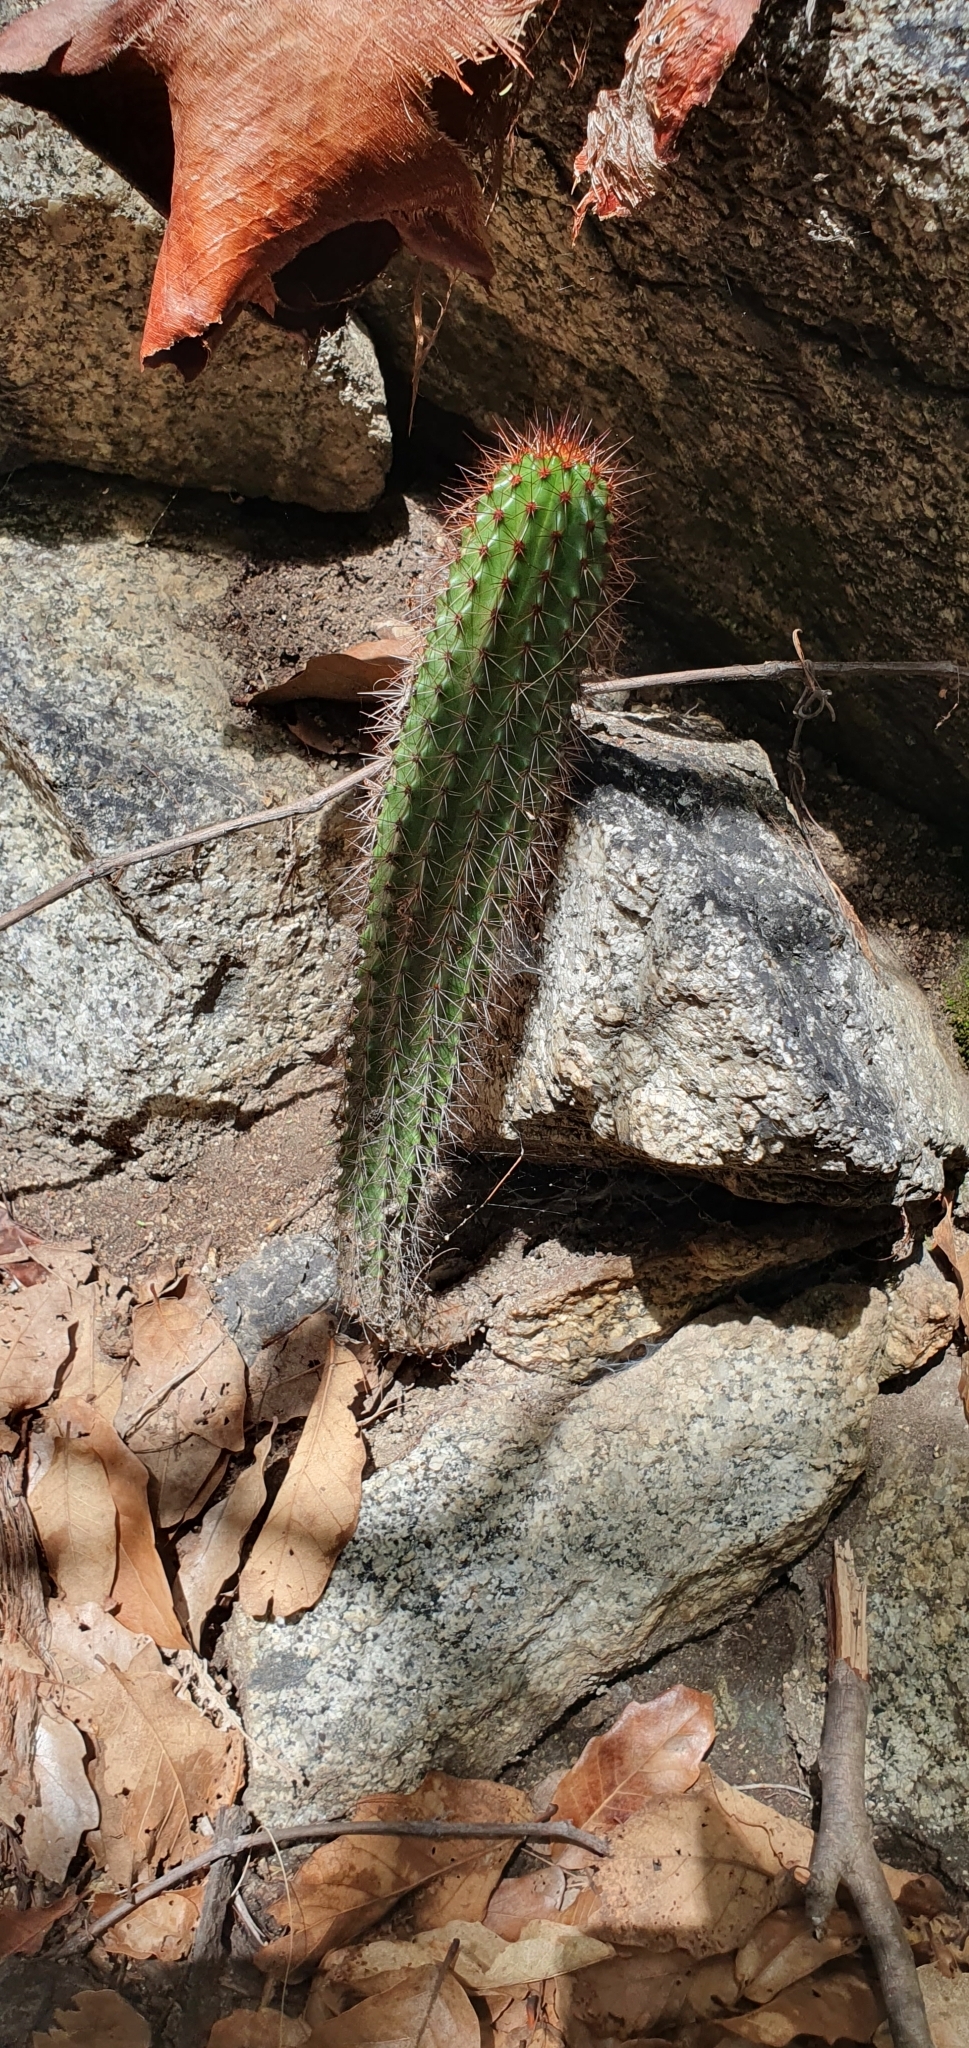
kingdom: Plantae
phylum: Tracheophyta
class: Magnoliopsida
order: Caryophyllales
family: Cactaceae
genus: Stenocereus
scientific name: Stenocereus thurberi
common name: Organ pipe cactus
